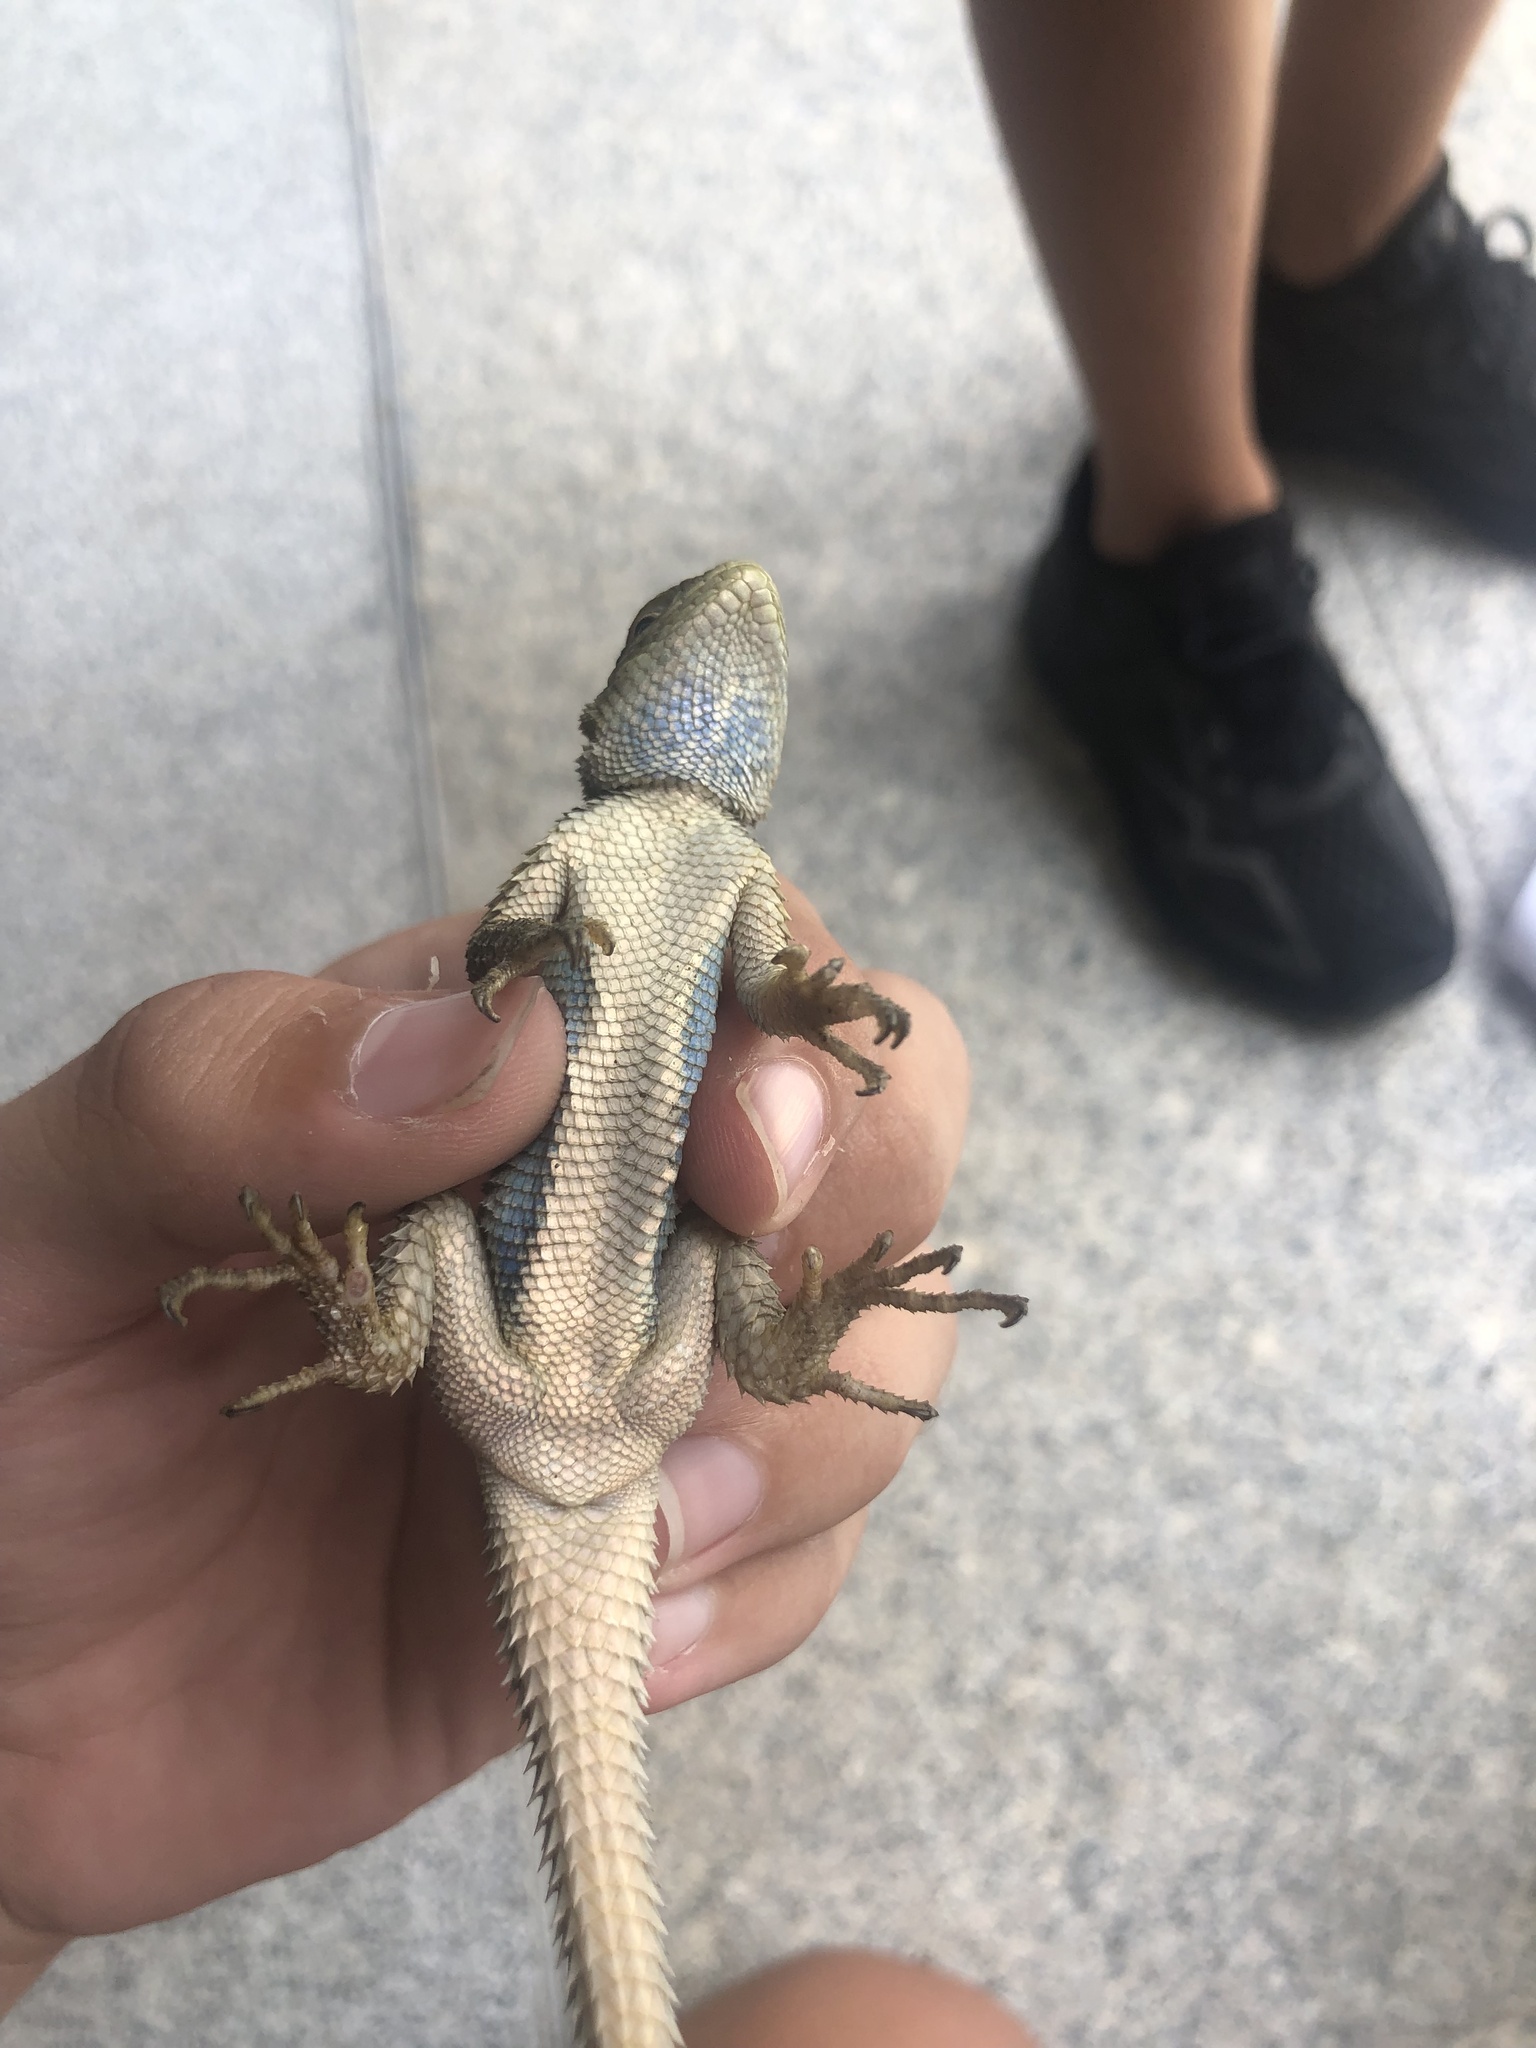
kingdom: Animalia
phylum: Chordata
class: Squamata
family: Phrynosomatidae
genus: Sceloporus
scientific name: Sceloporus cyanogenys
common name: Blue spiny lizard
